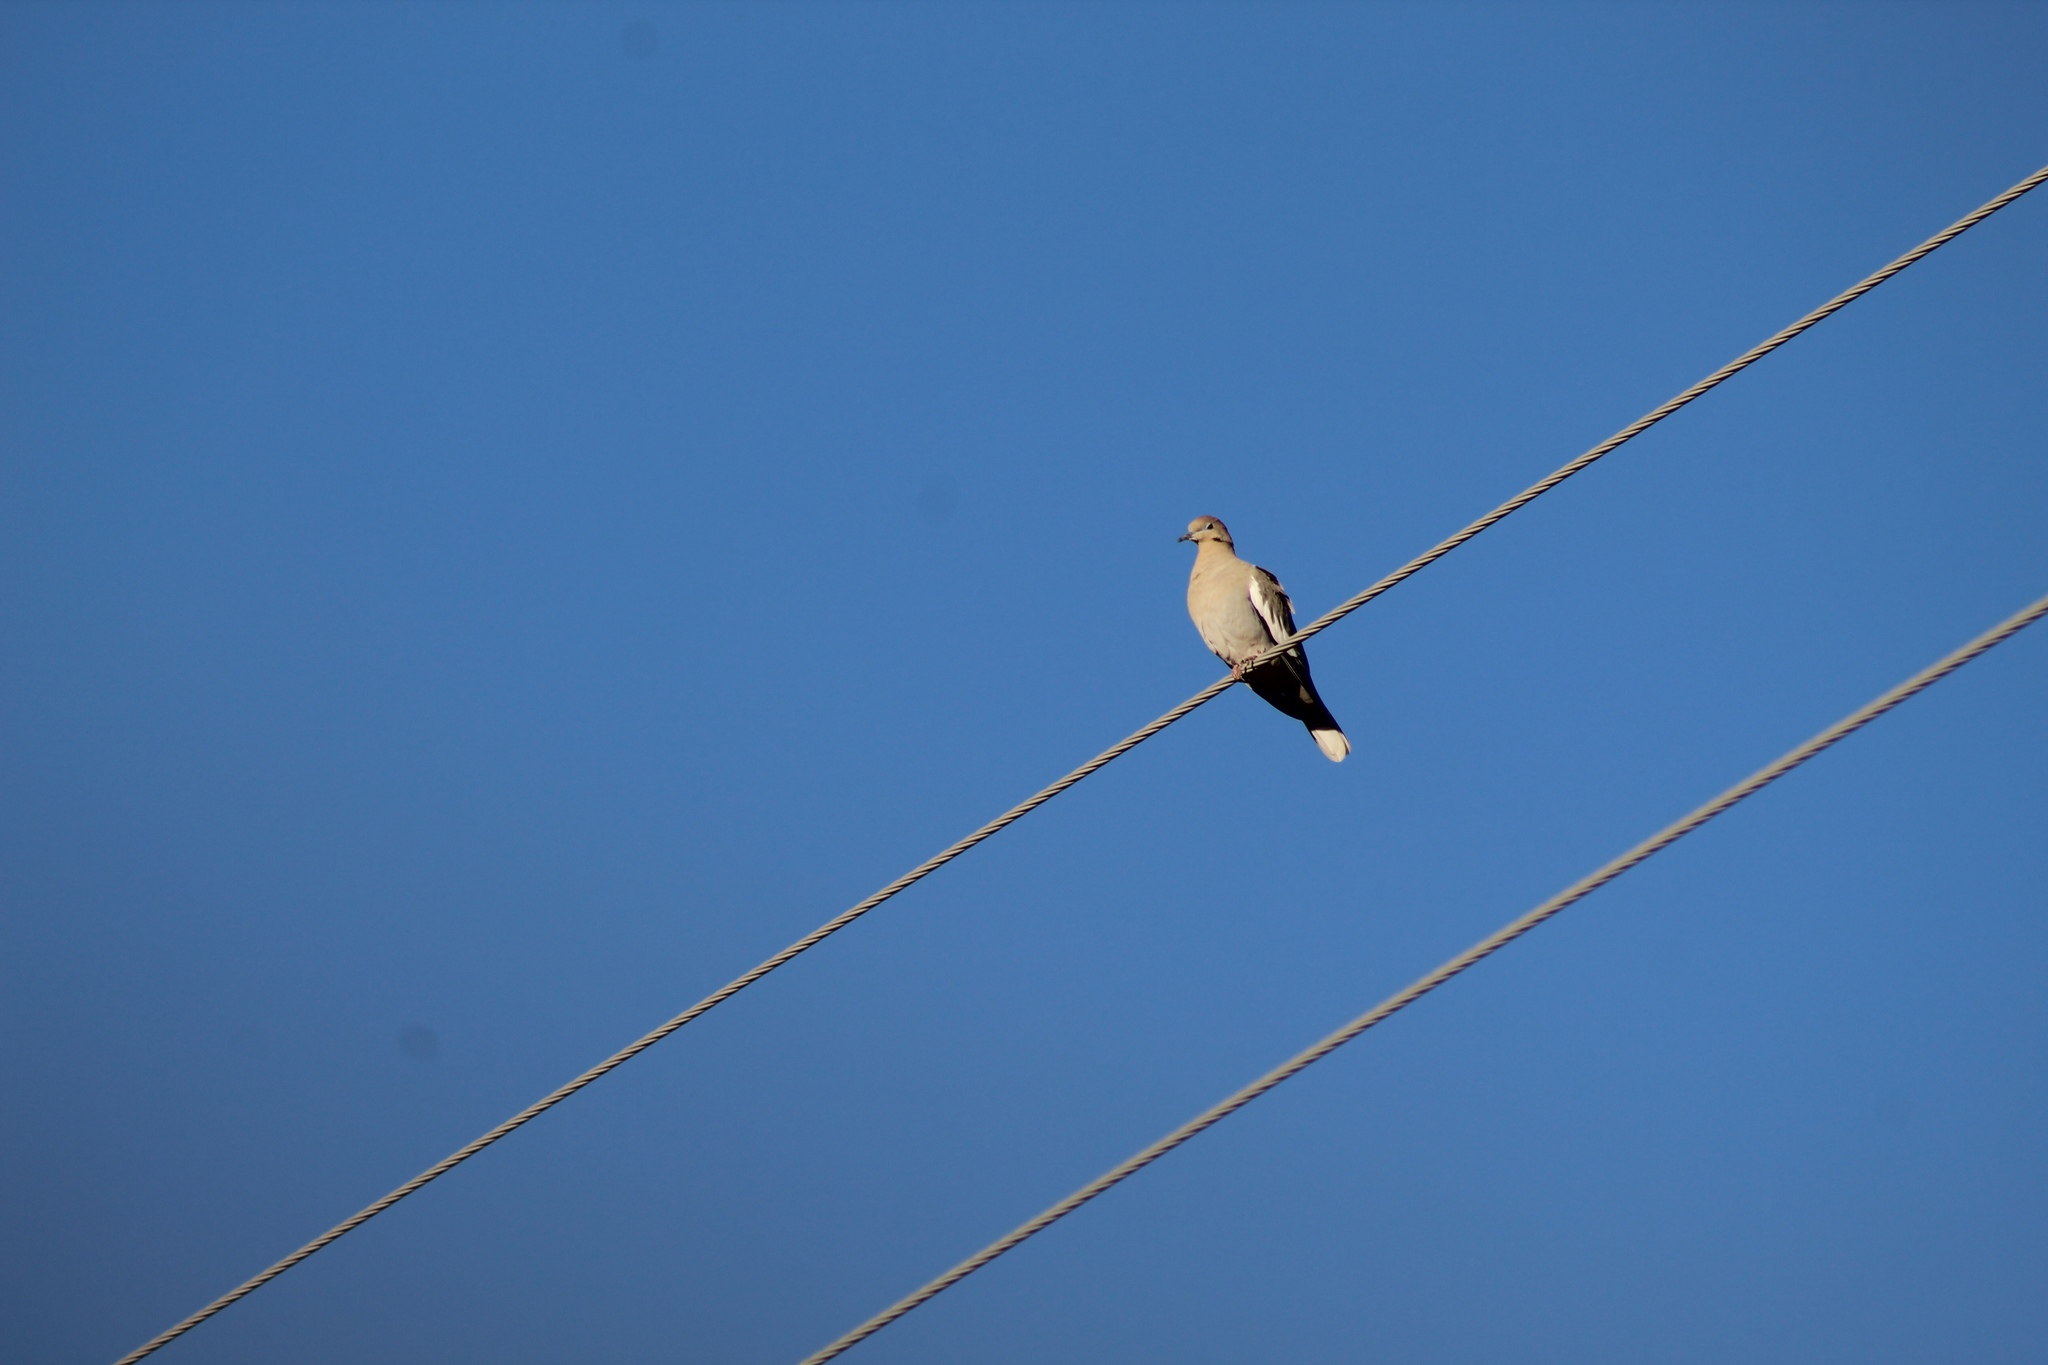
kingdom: Animalia
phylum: Chordata
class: Aves
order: Columbiformes
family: Columbidae
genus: Zenaida
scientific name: Zenaida asiatica
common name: White-winged dove
